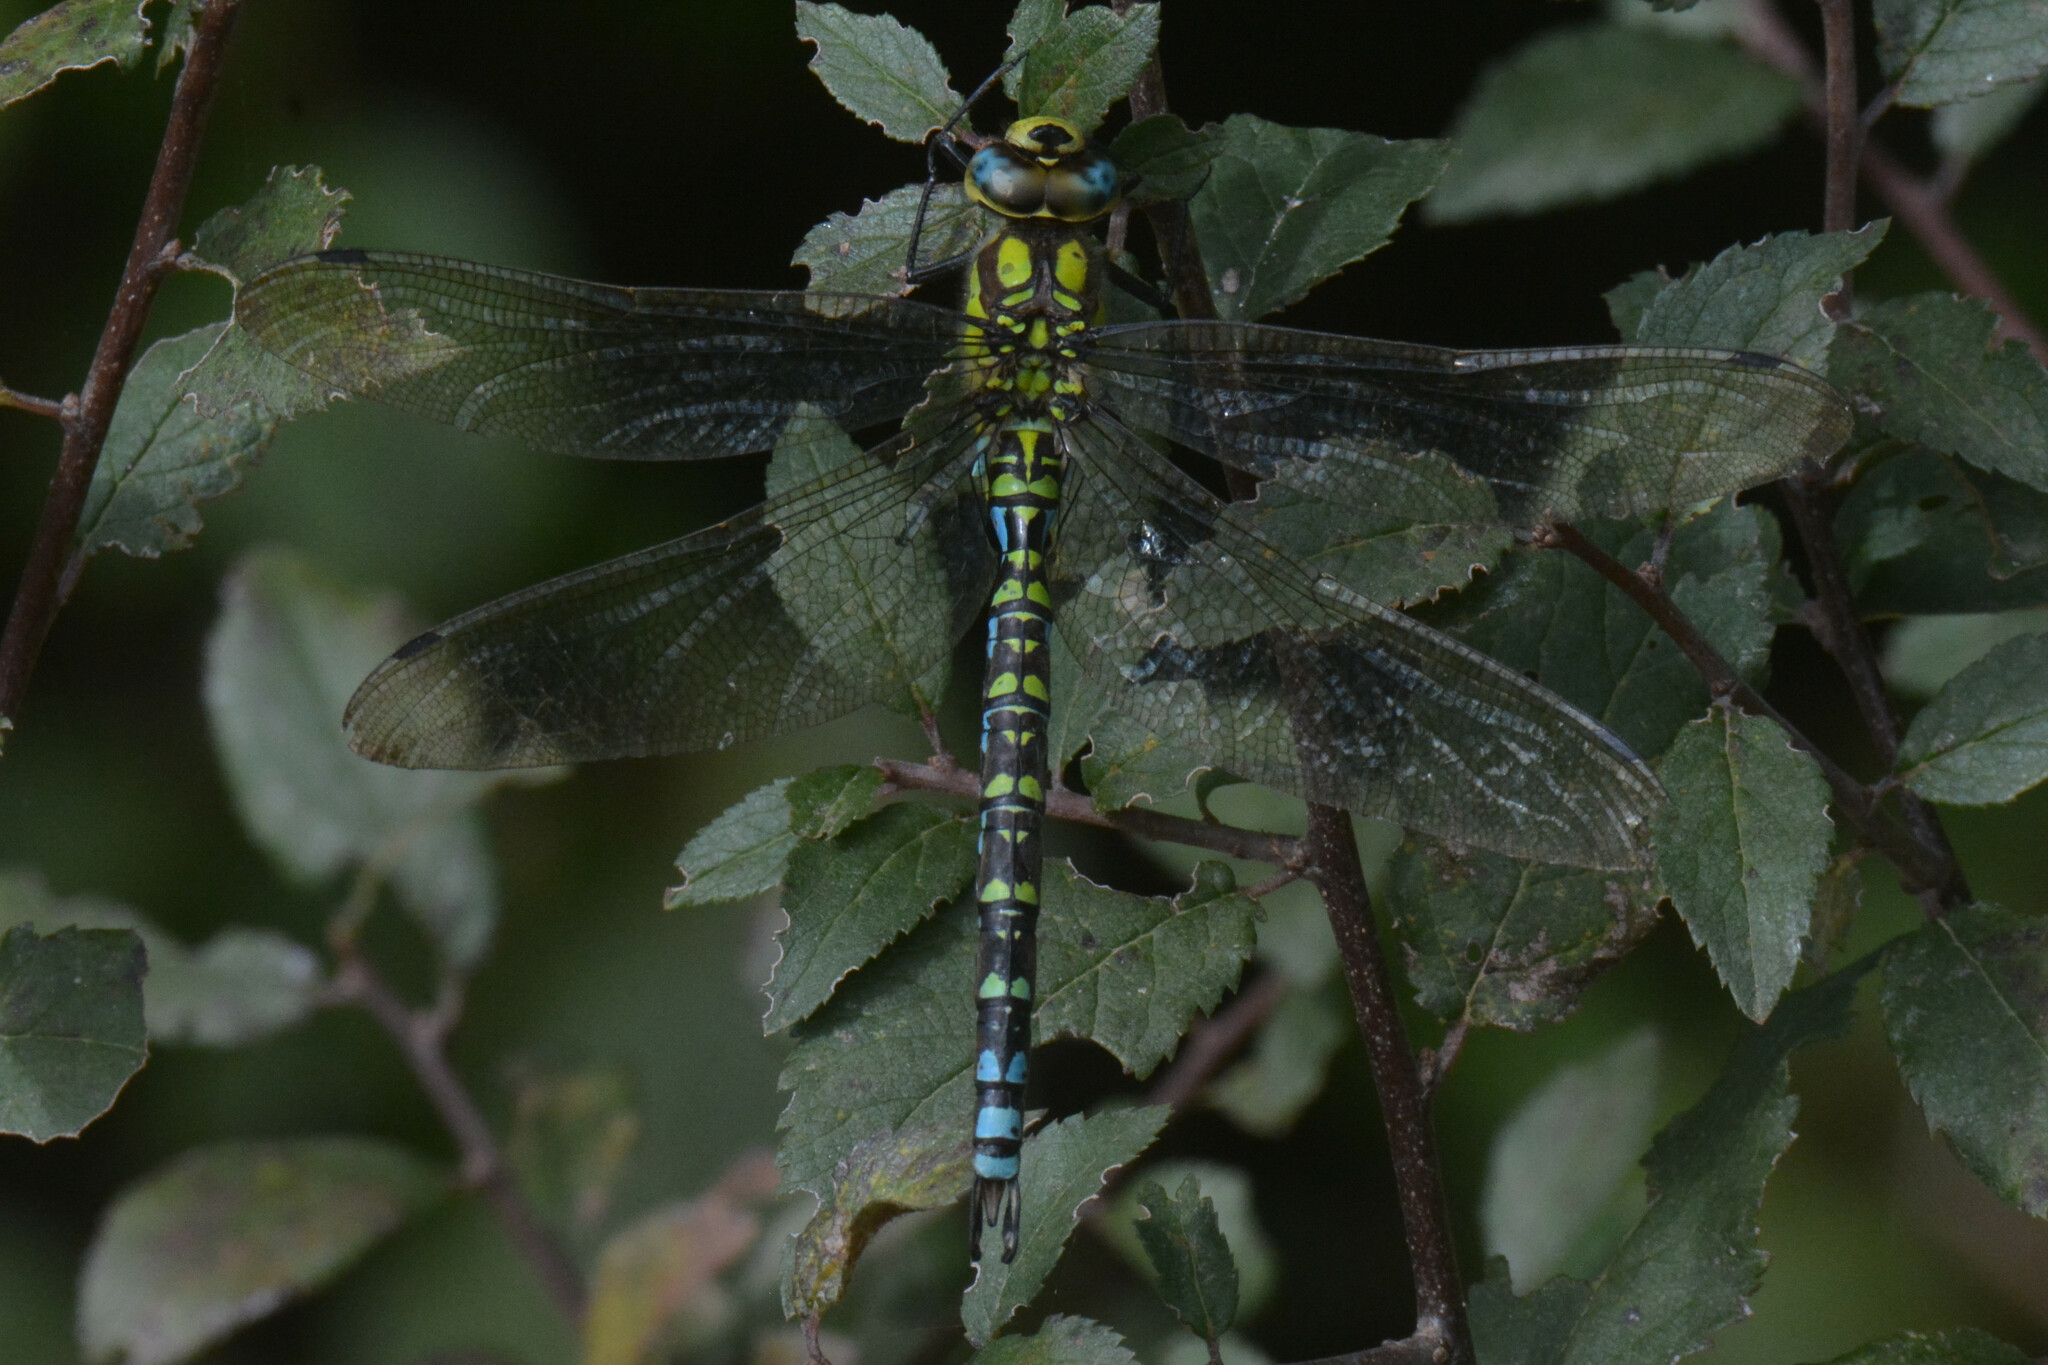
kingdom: Animalia
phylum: Arthropoda
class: Insecta
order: Odonata
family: Aeshnidae
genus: Aeshna
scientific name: Aeshna cyanea
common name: Southern hawker
